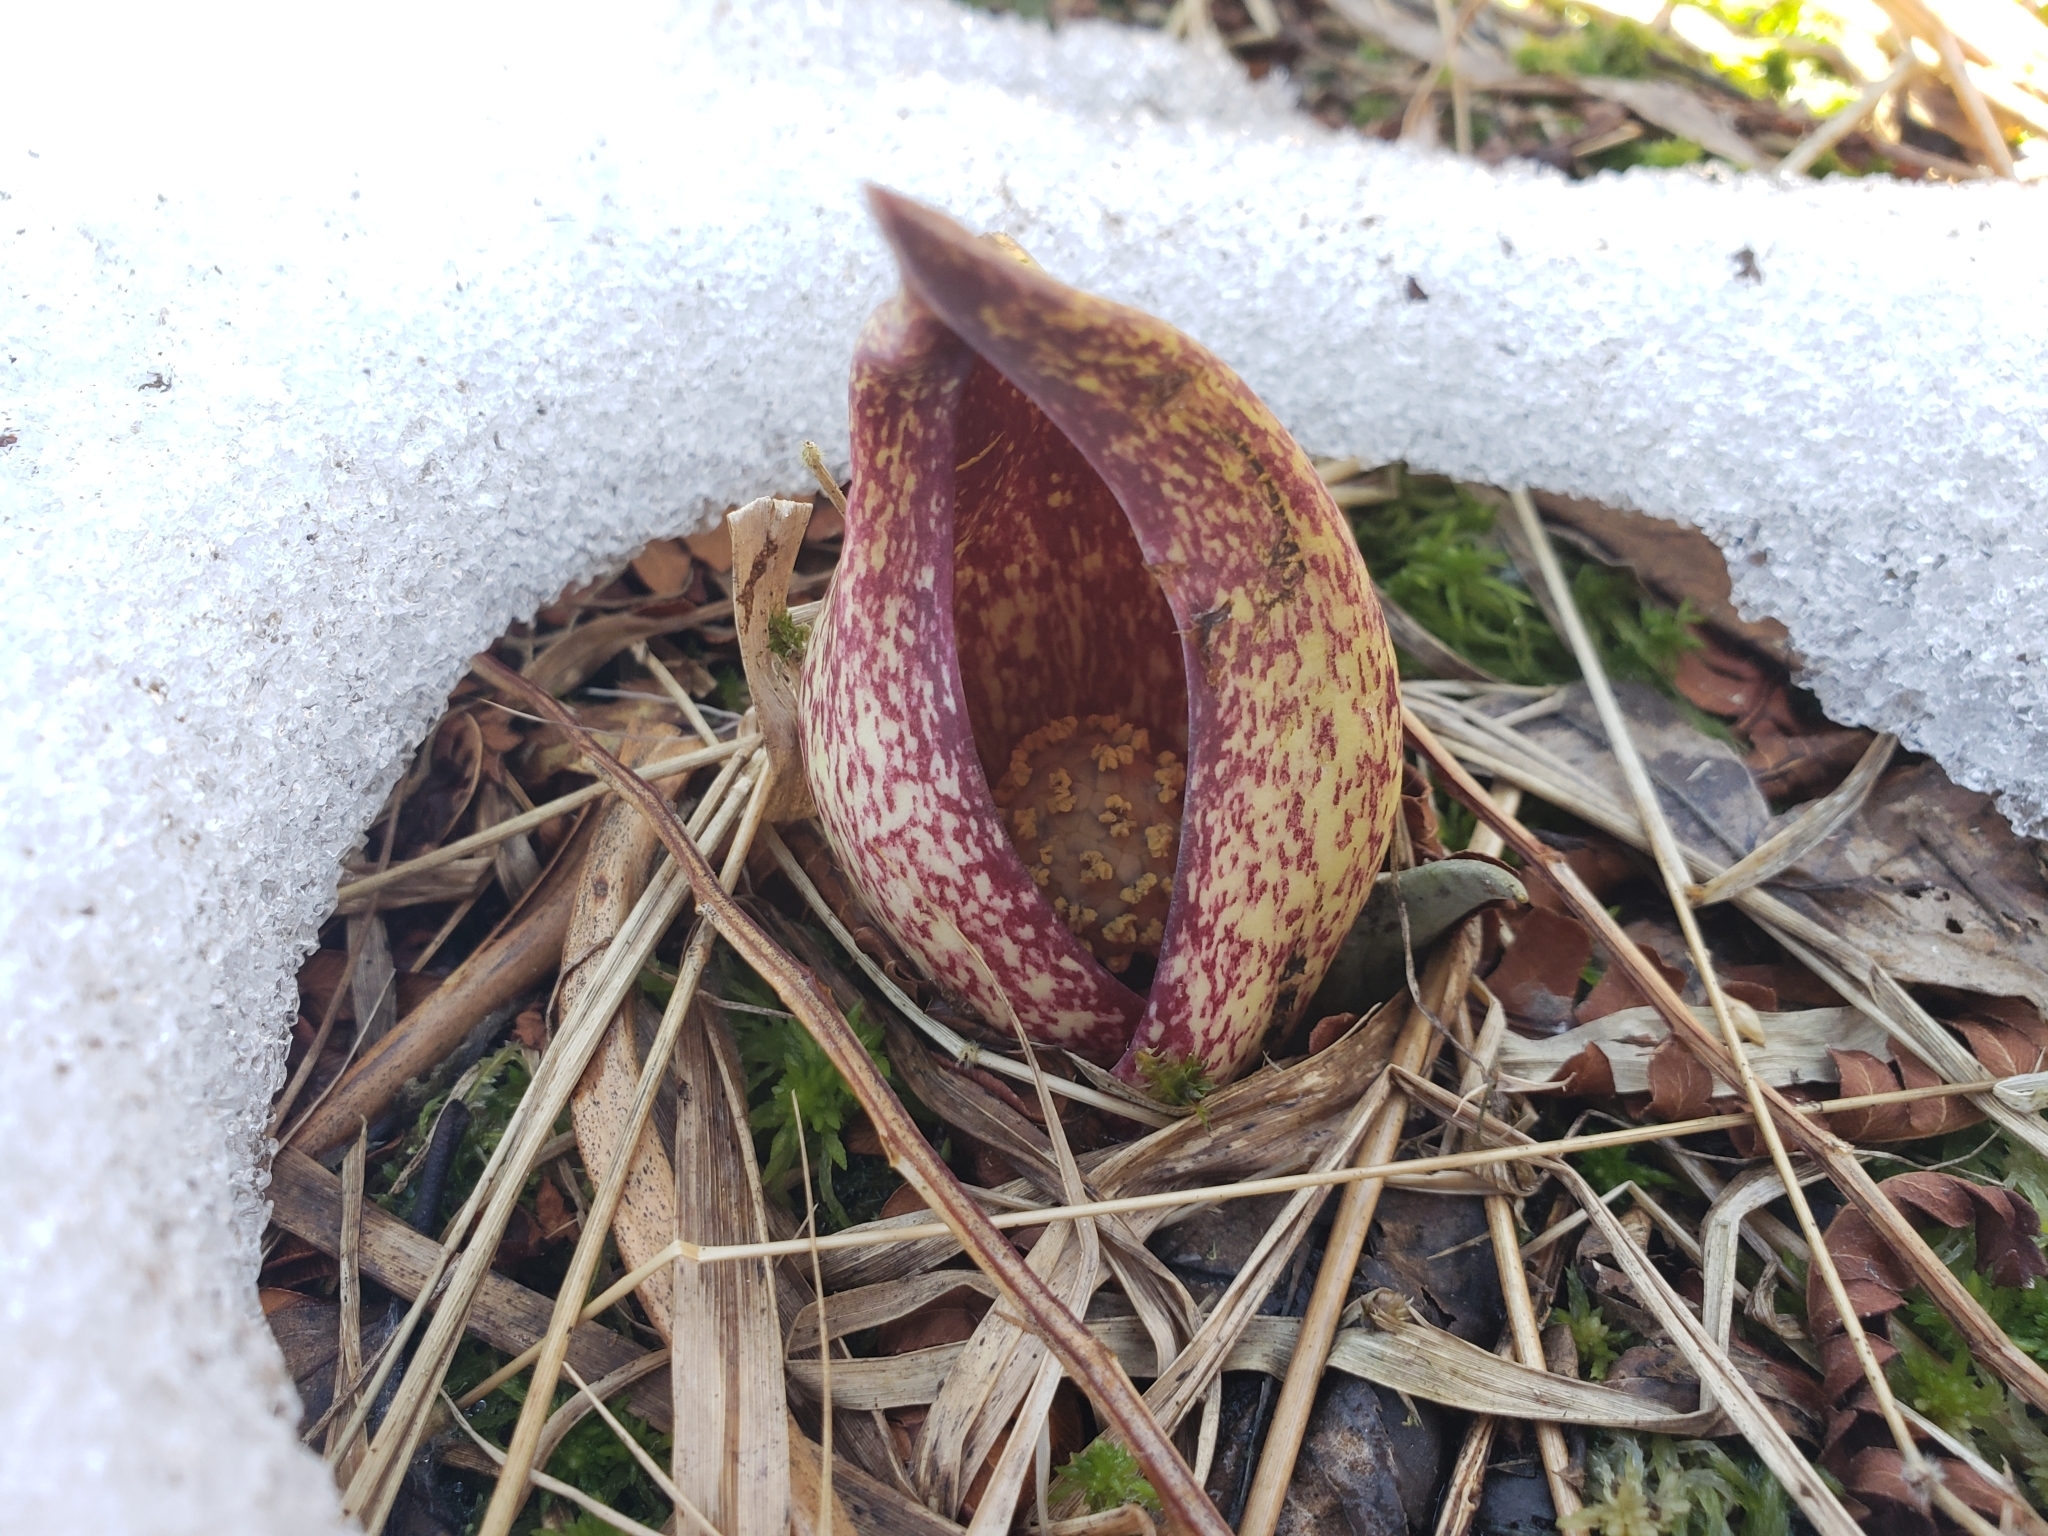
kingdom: Plantae
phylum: Tracheophyta
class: Liliopsida
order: Alismatales
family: Araceae
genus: Symplocarpus
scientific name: Symplocarpus foetidus
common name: Eastern skunk cabbage
